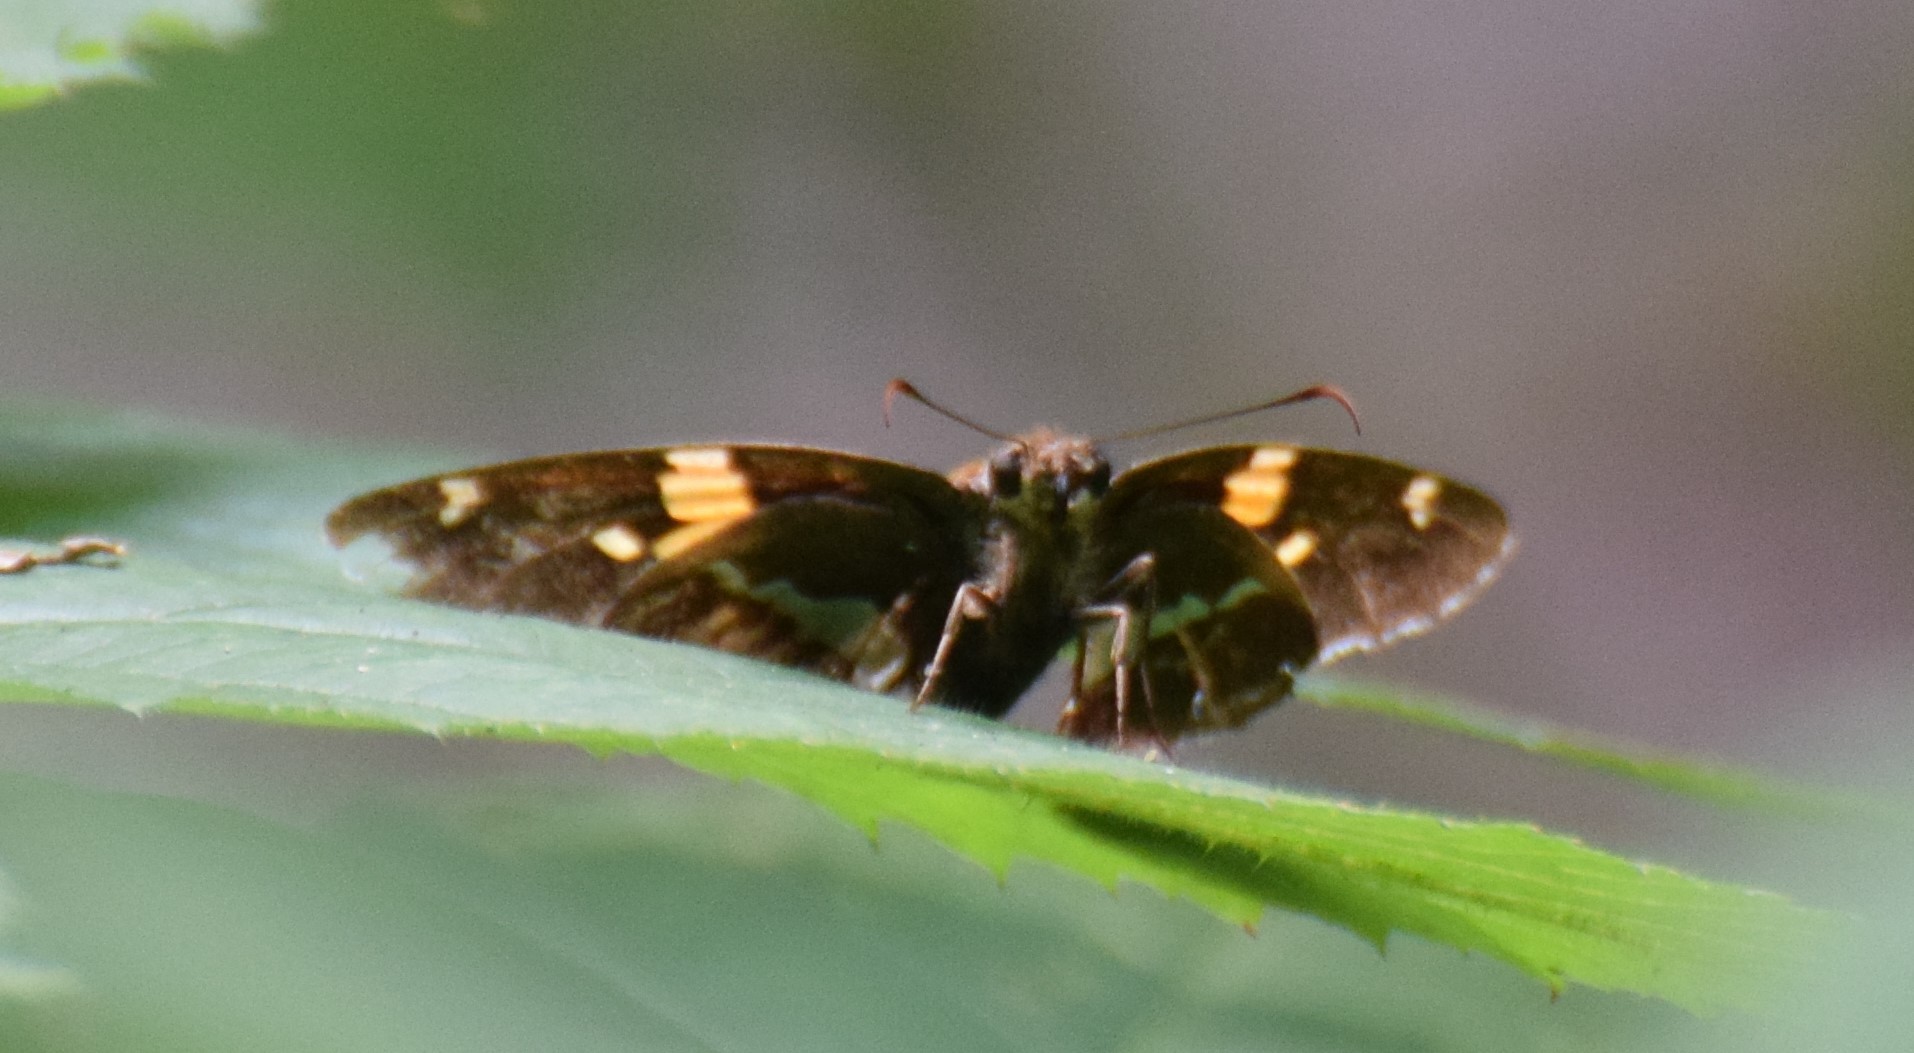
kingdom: Animalia
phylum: Arthropoda
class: Insecta
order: Lepidoptera
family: Hesperiidae
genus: Epargyreus
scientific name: Epargyreus clarus
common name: Silver-spotted skipper
